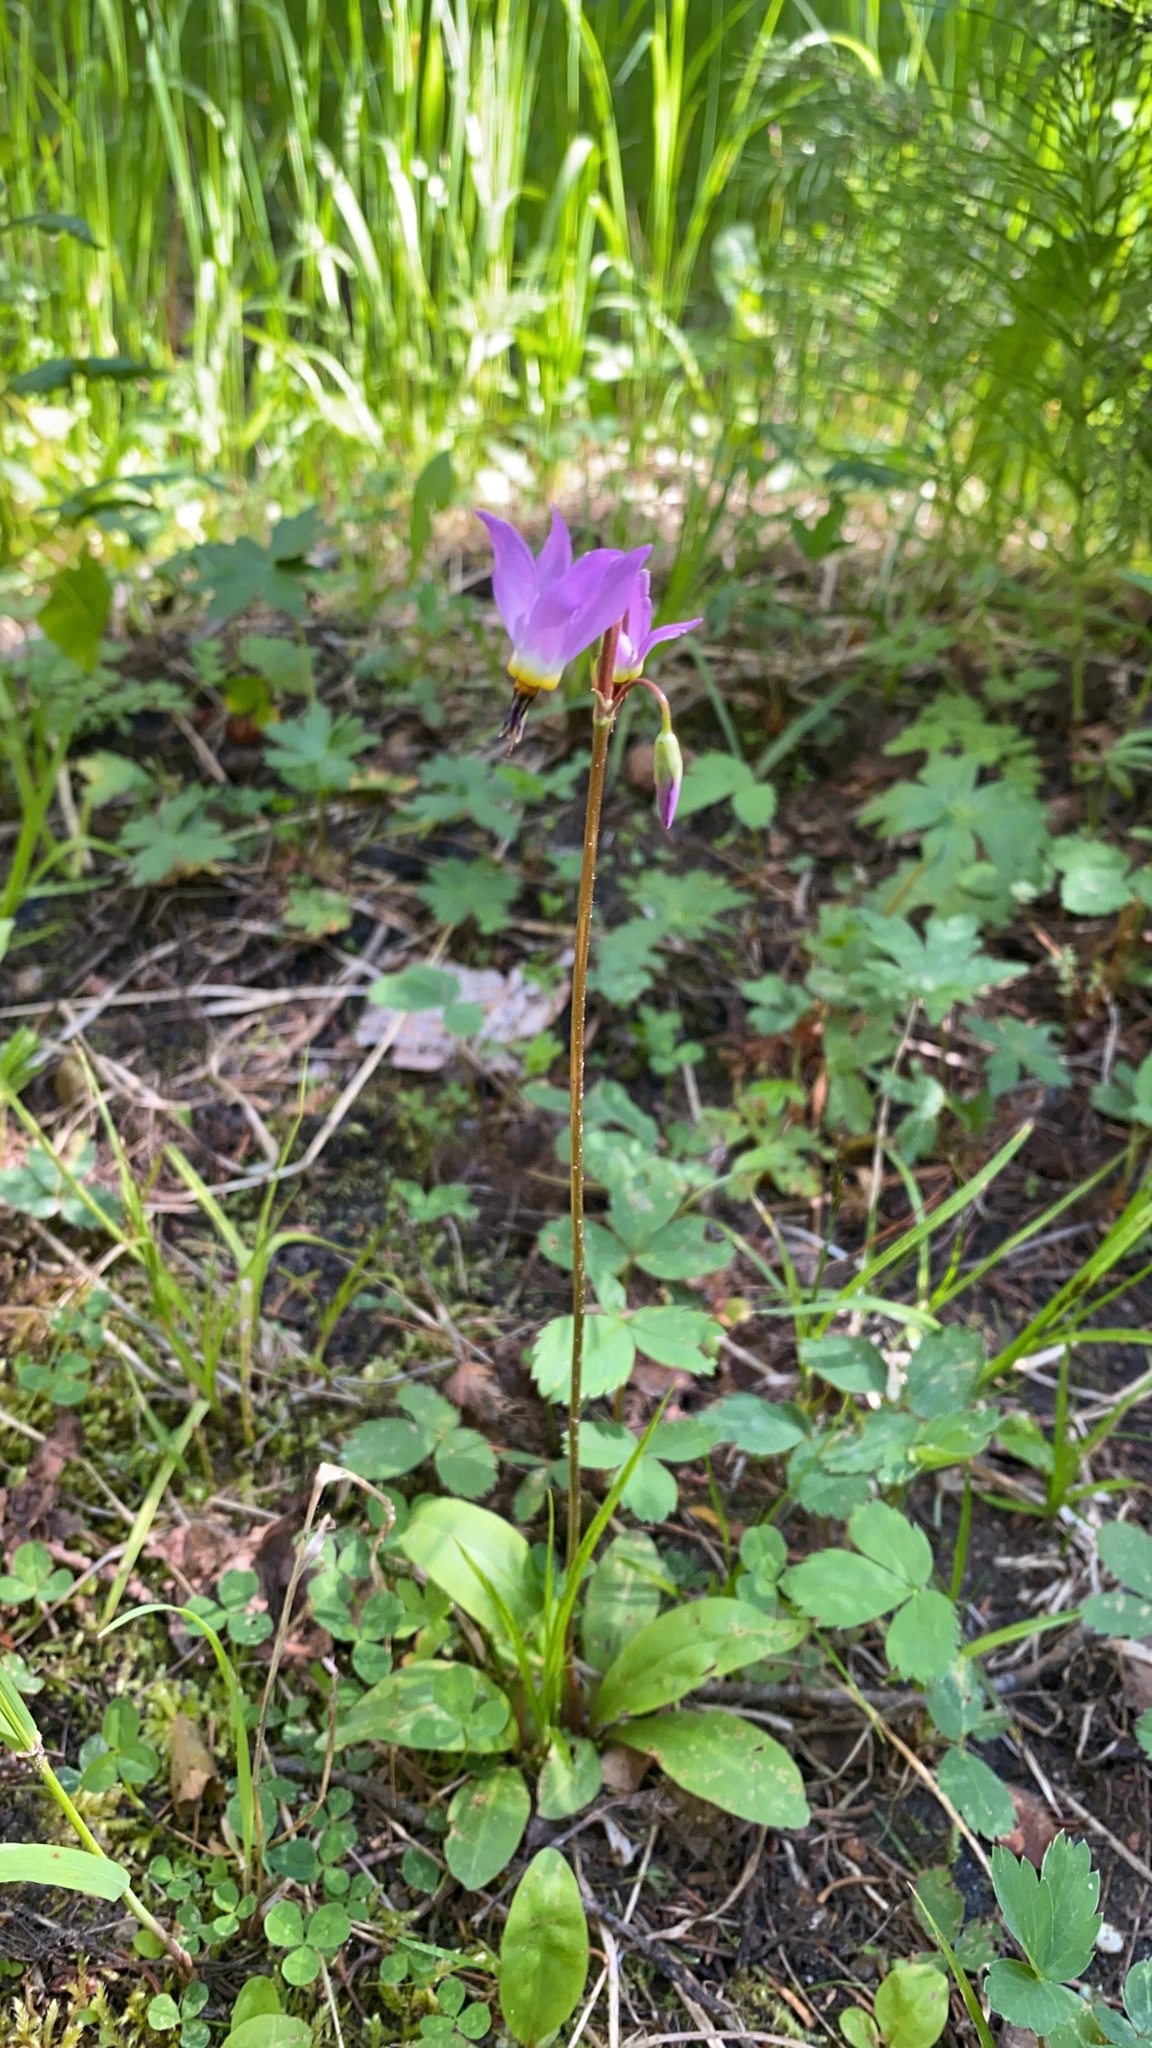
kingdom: Plantae
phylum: Tracheophyta
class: Magnoliopsida
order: Ericales
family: Primulaceae
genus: Dodecatheon
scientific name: Dodecatheon pulchellum
